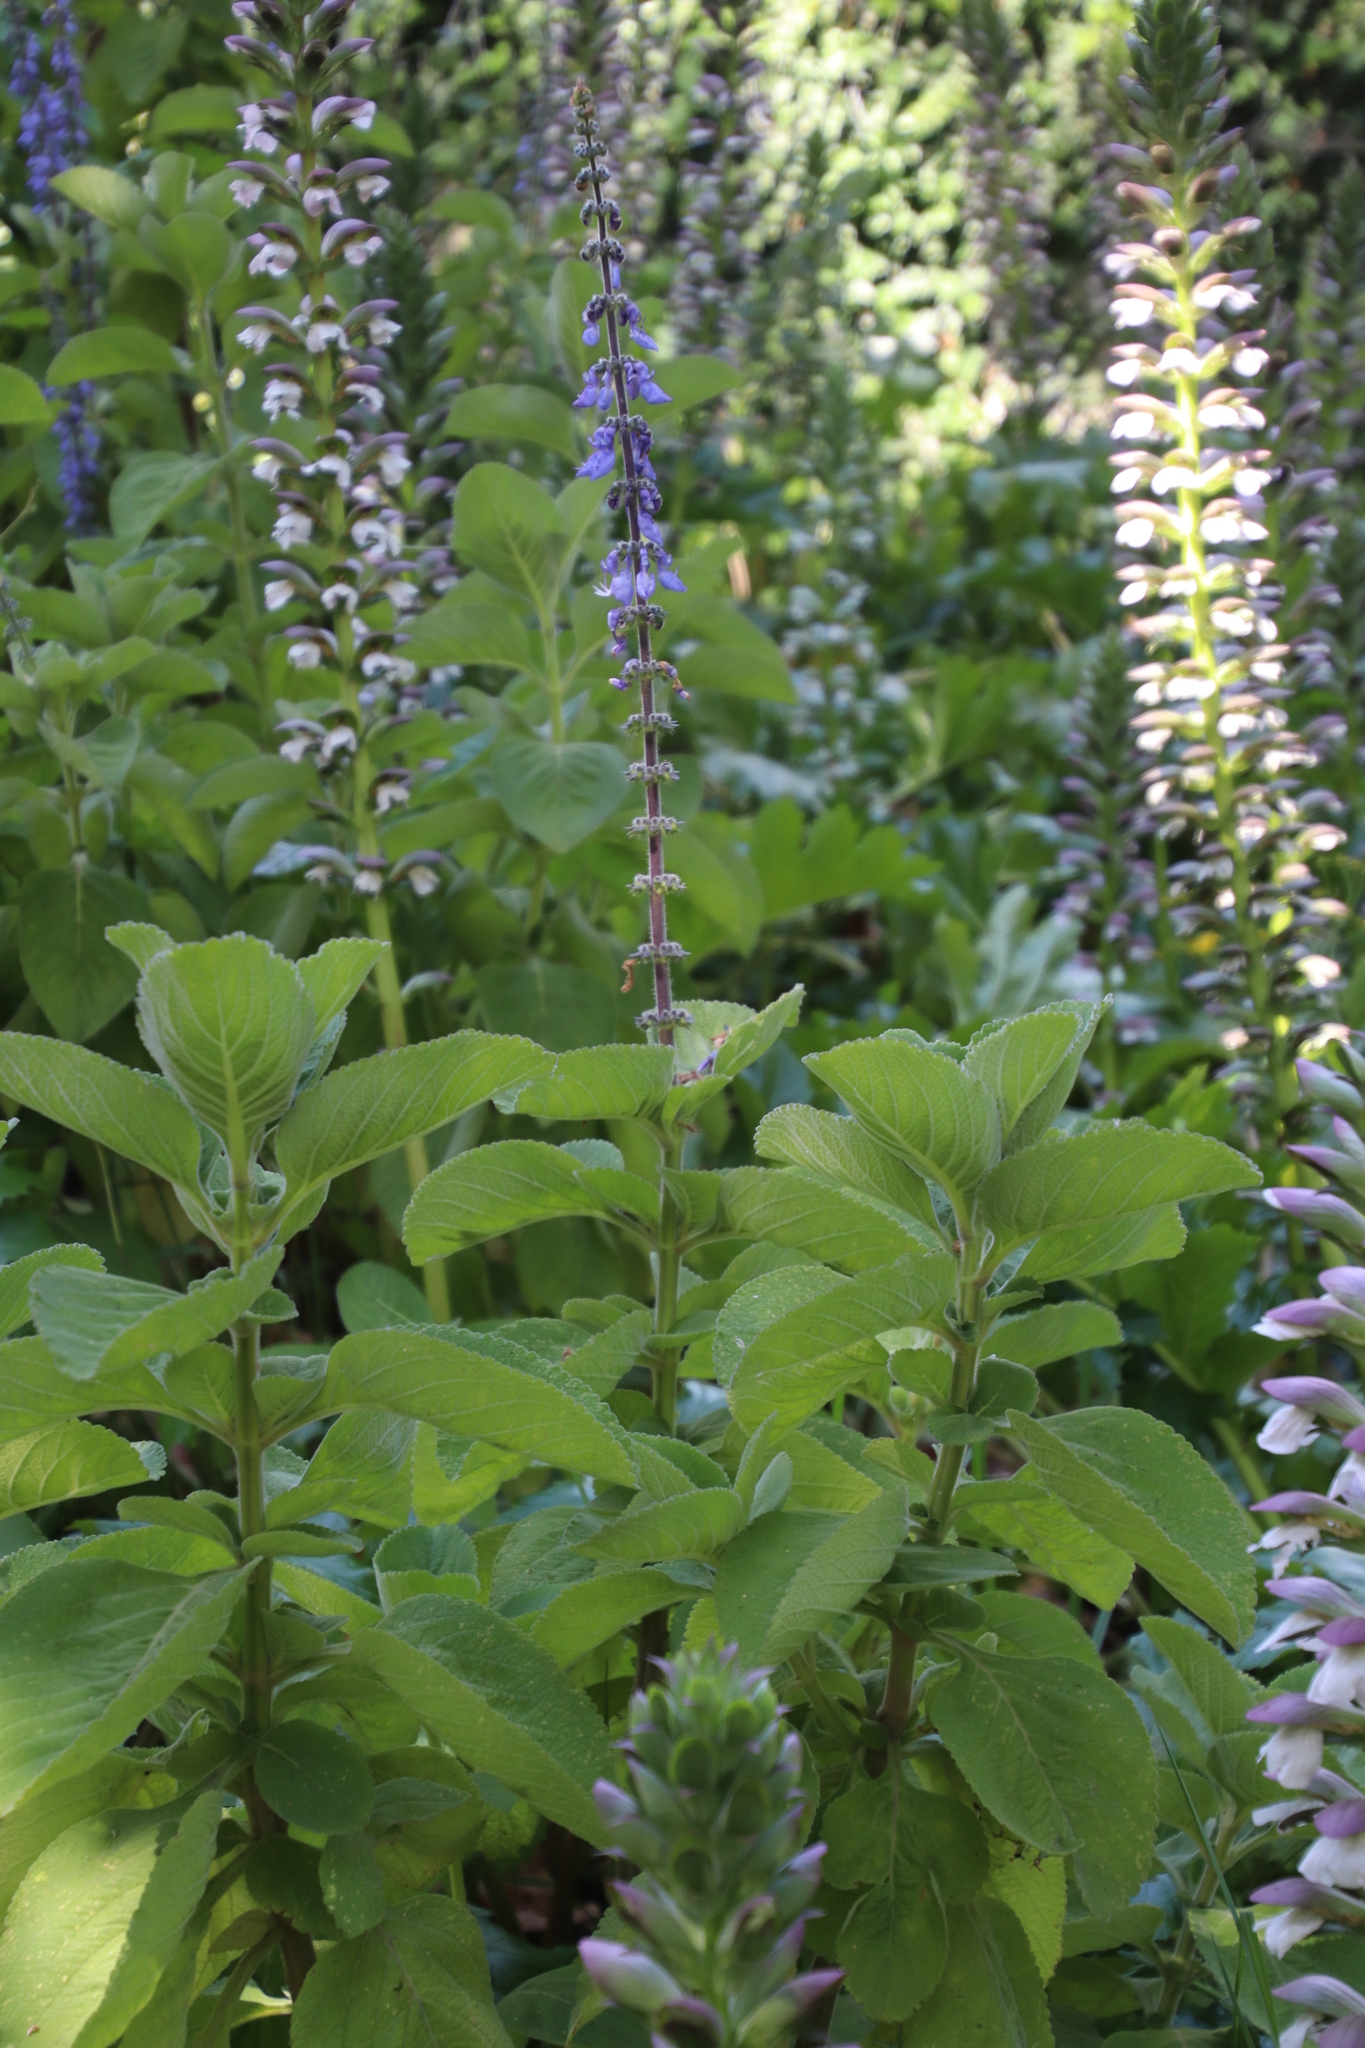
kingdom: Plantae
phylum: Tracheophyta
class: Magnoliopsida
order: Lamiales
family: Lamiaceae
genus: Coleus
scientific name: Coleus barbatus
